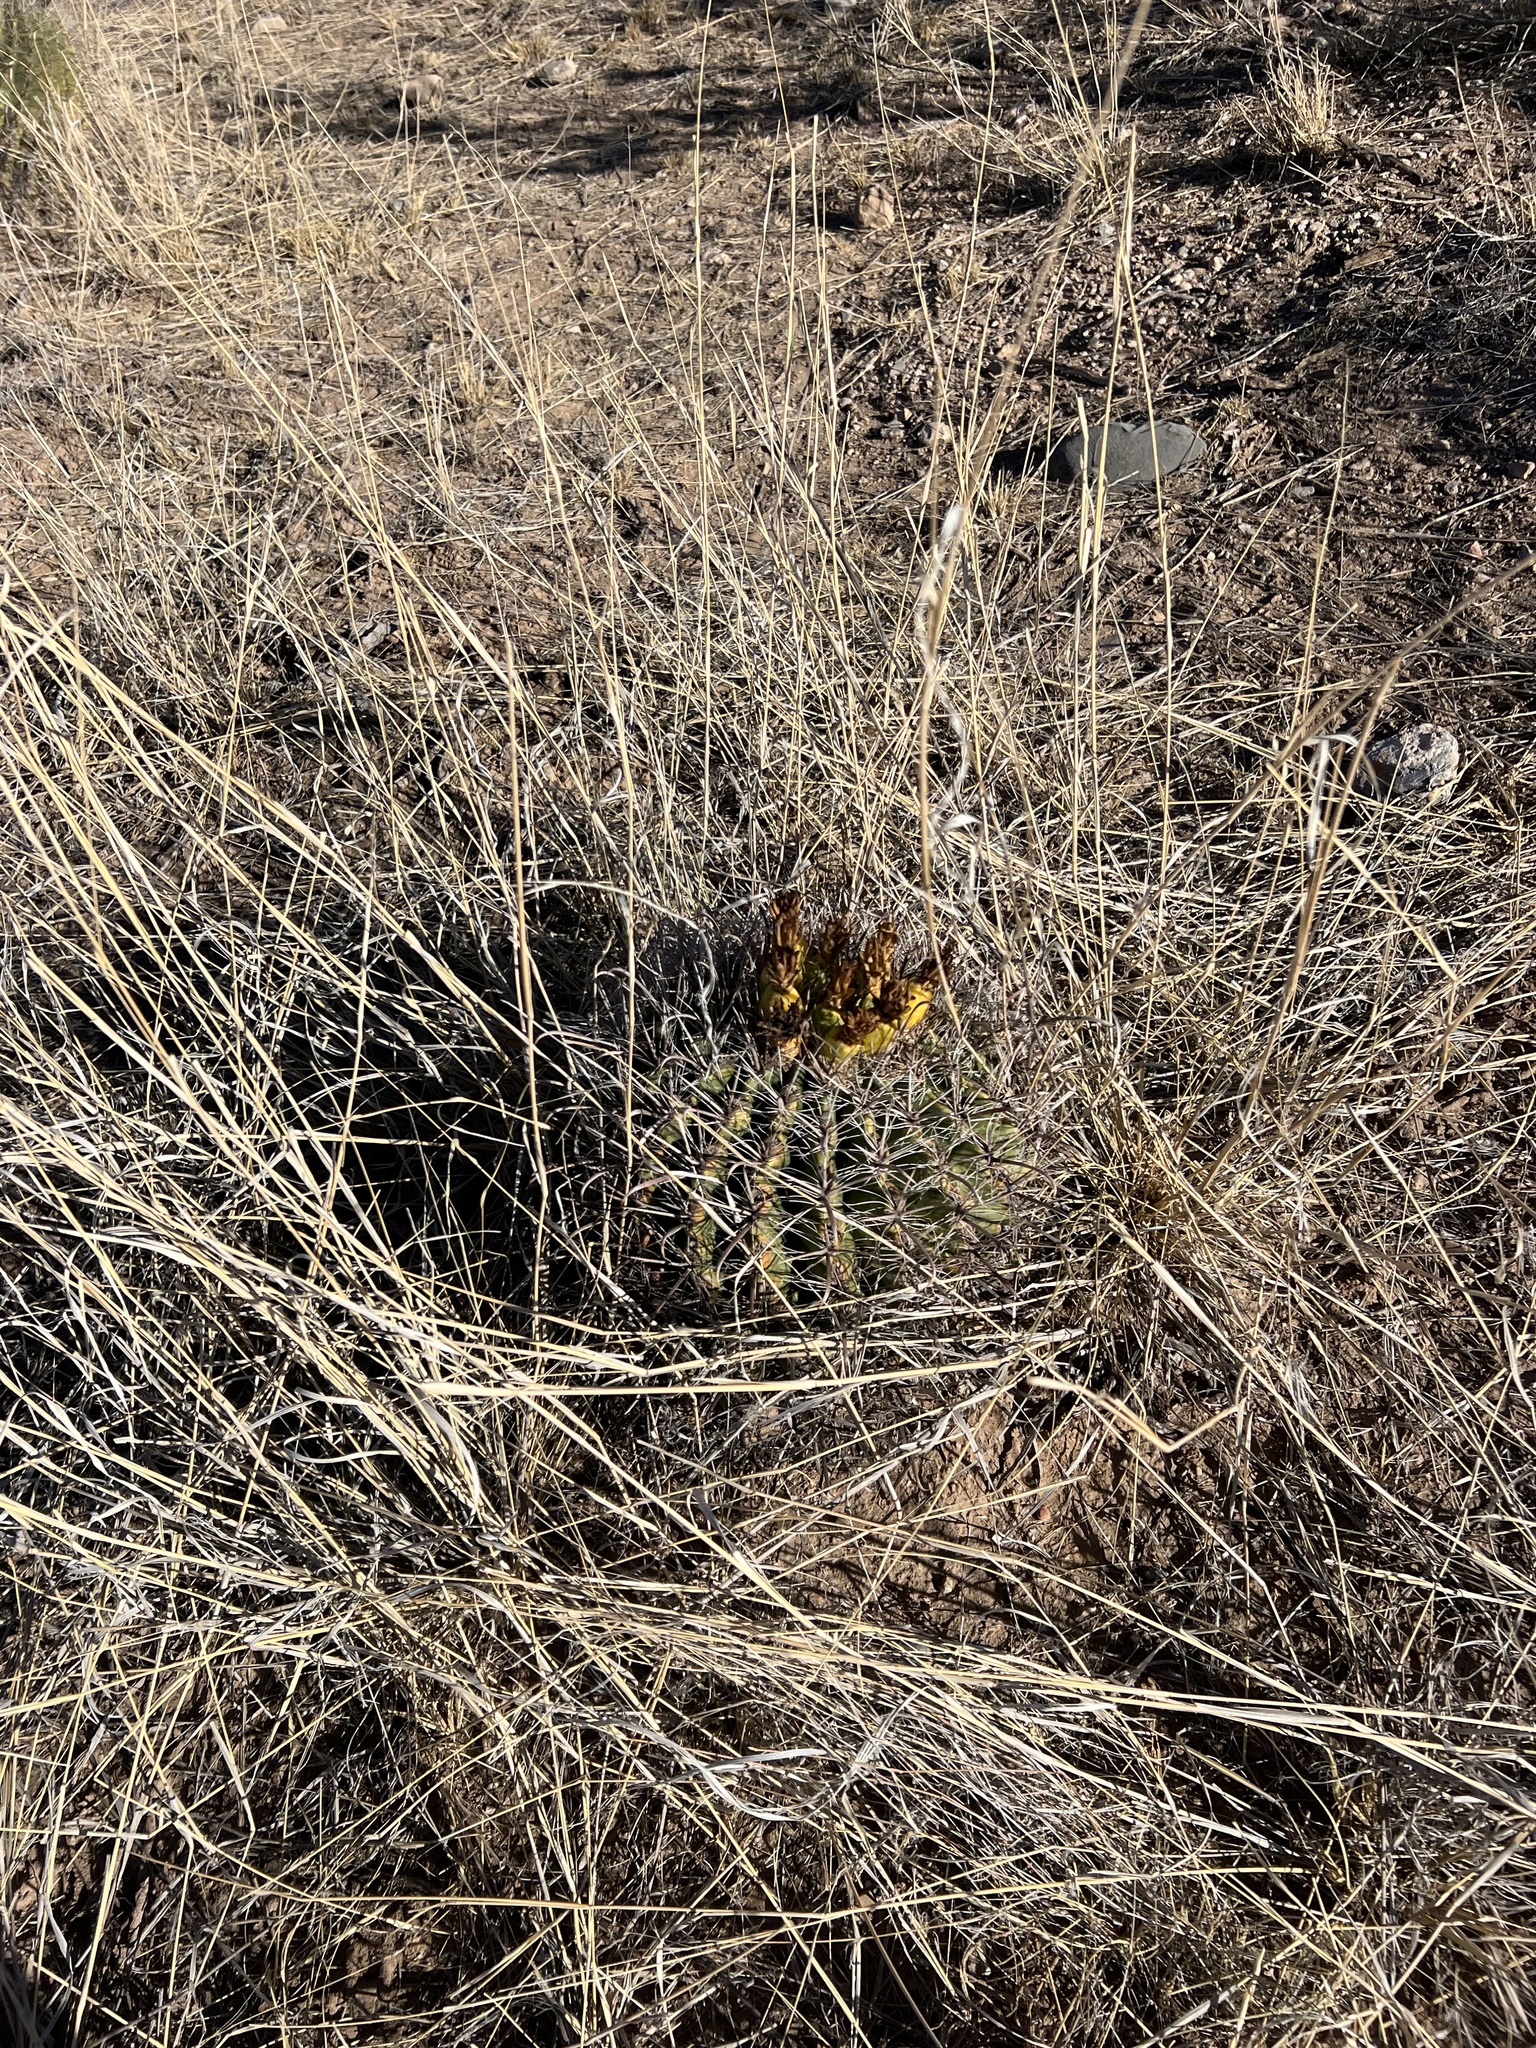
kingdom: Plantae
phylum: Tracheophyta
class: Magnoliopsida
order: Caryophyllales
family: Cactaceae
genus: Ferocactus
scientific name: Ferocactus wislizeni
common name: Candy barrel cactus
